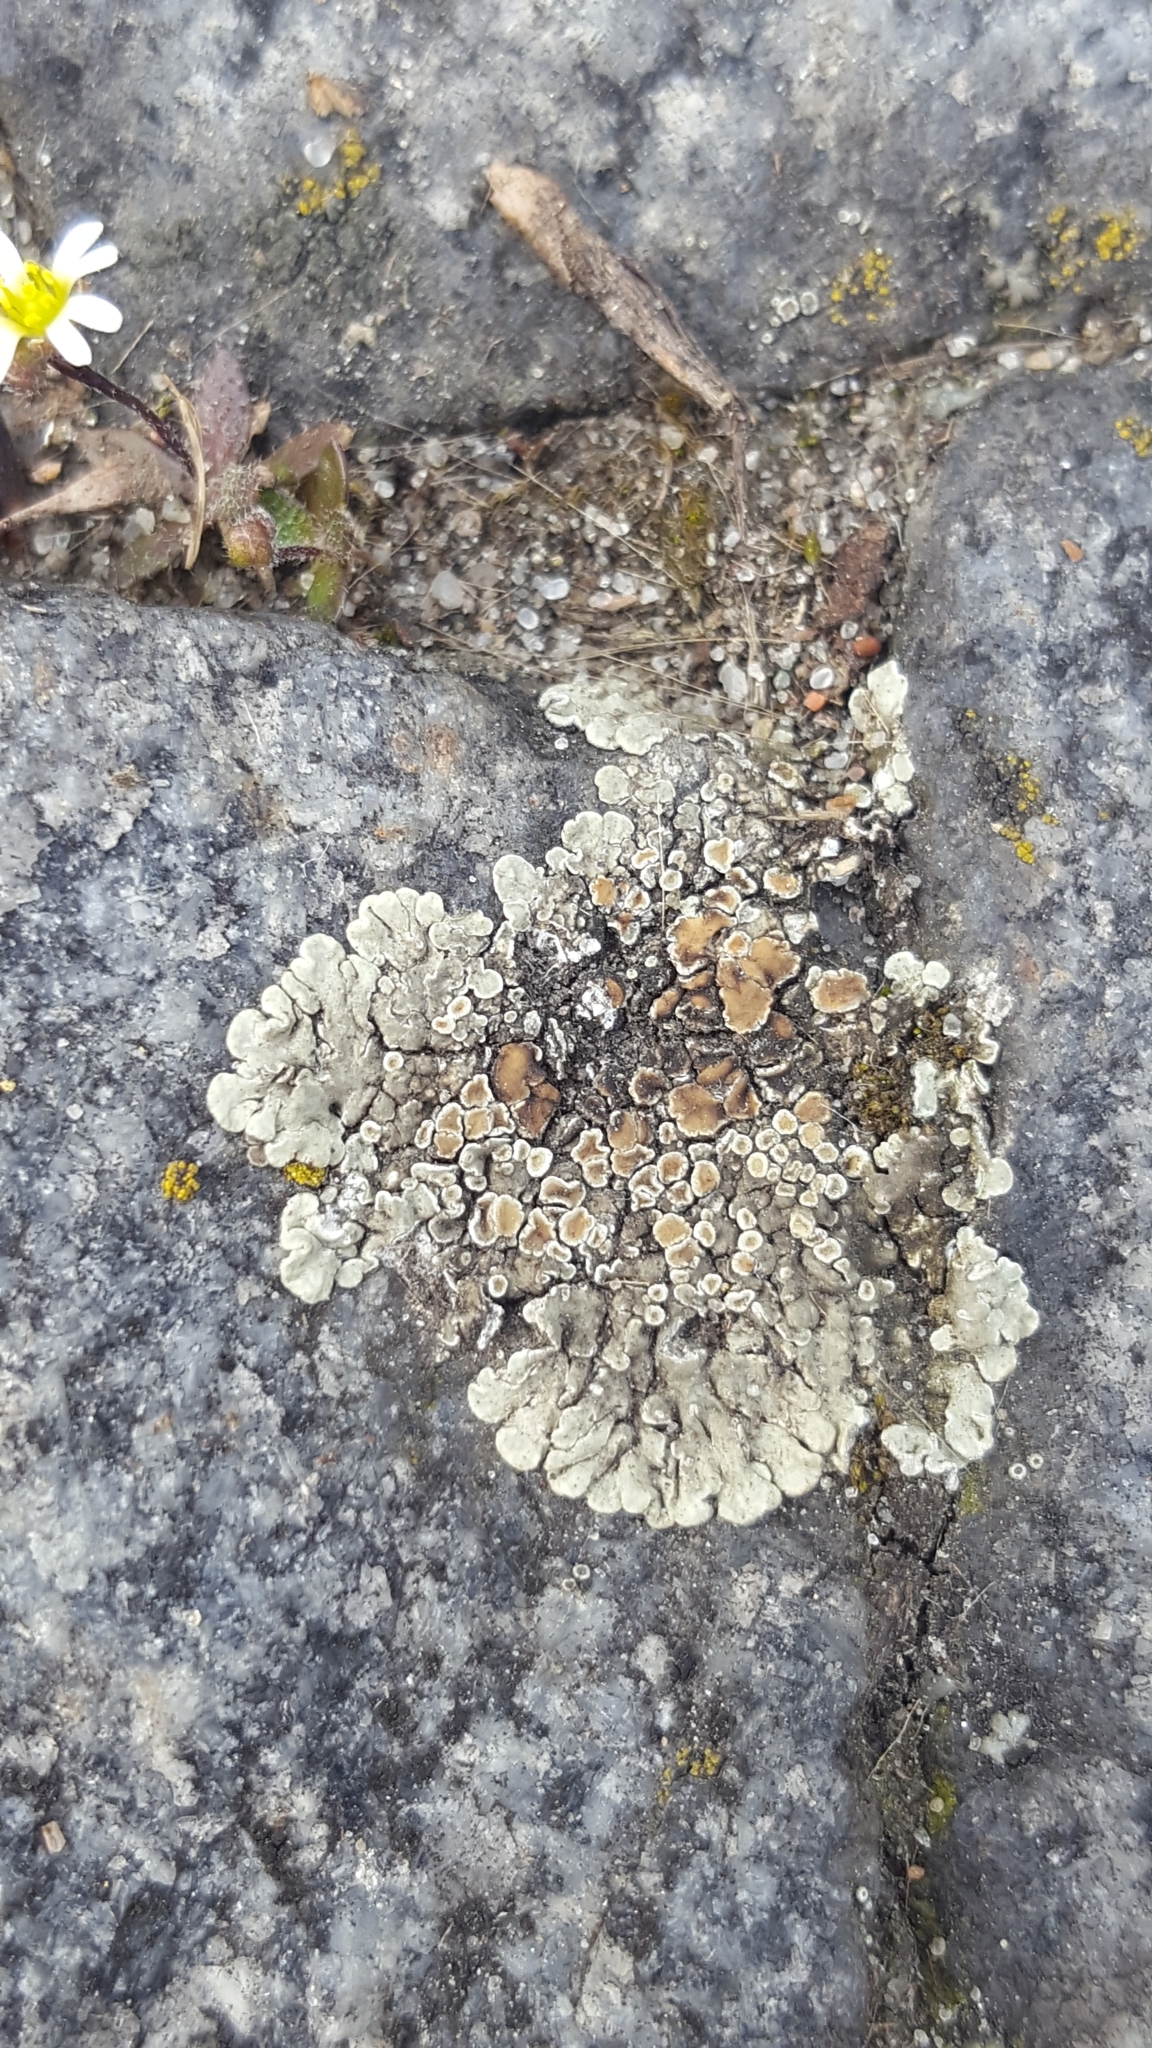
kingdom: Fungi
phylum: Ascomycota
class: Lecanoromycetes
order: Lecanorales
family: Lecanoraceae
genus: Protoparmeliopsis
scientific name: Protoparmeliopsis muralis
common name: Stonewall rim lichen
